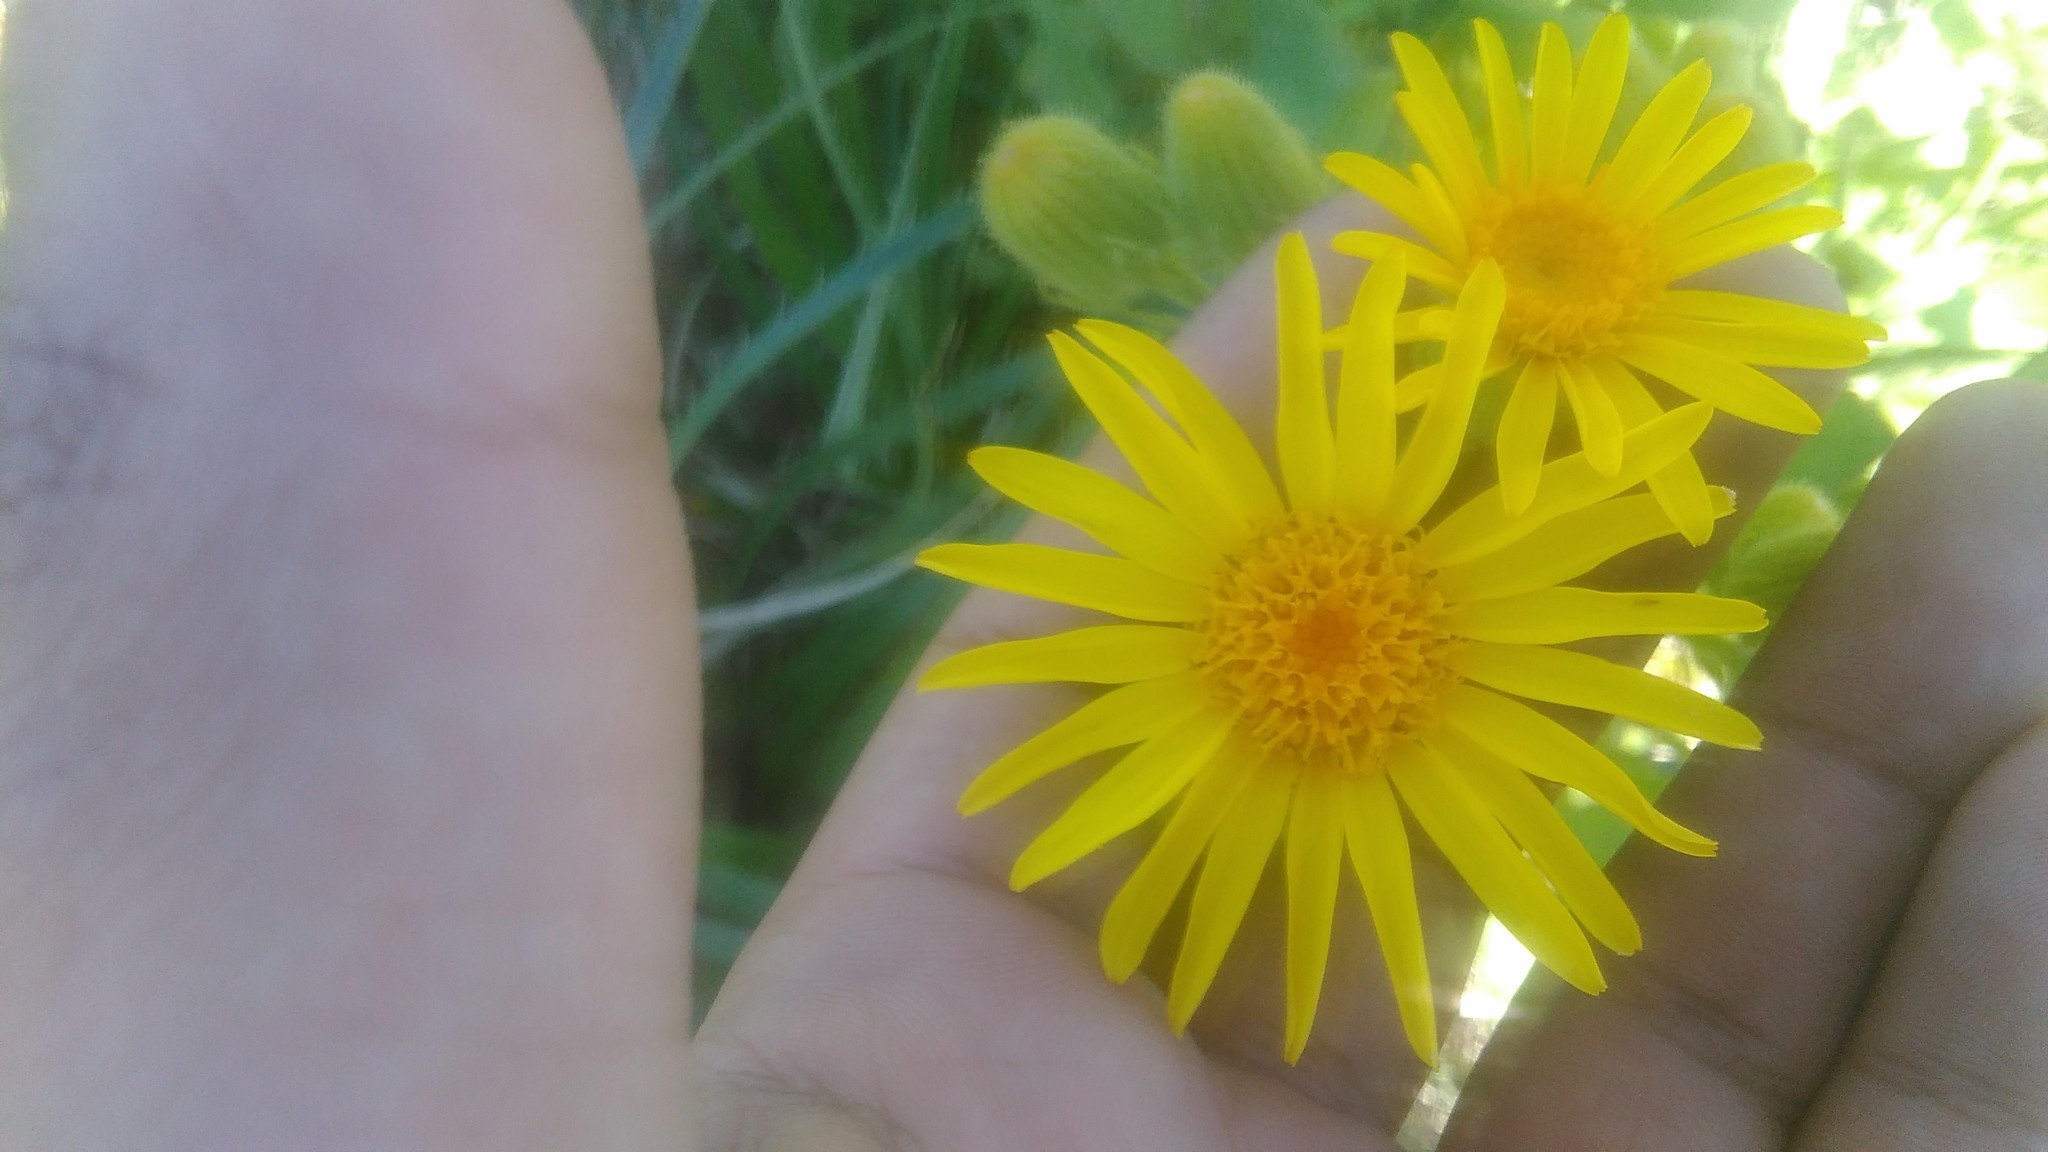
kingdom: Plantae
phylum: Tracheophyta
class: Magnoliopsida
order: Asterales
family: Asteraceae
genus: Senecio
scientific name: Senecio selloi
